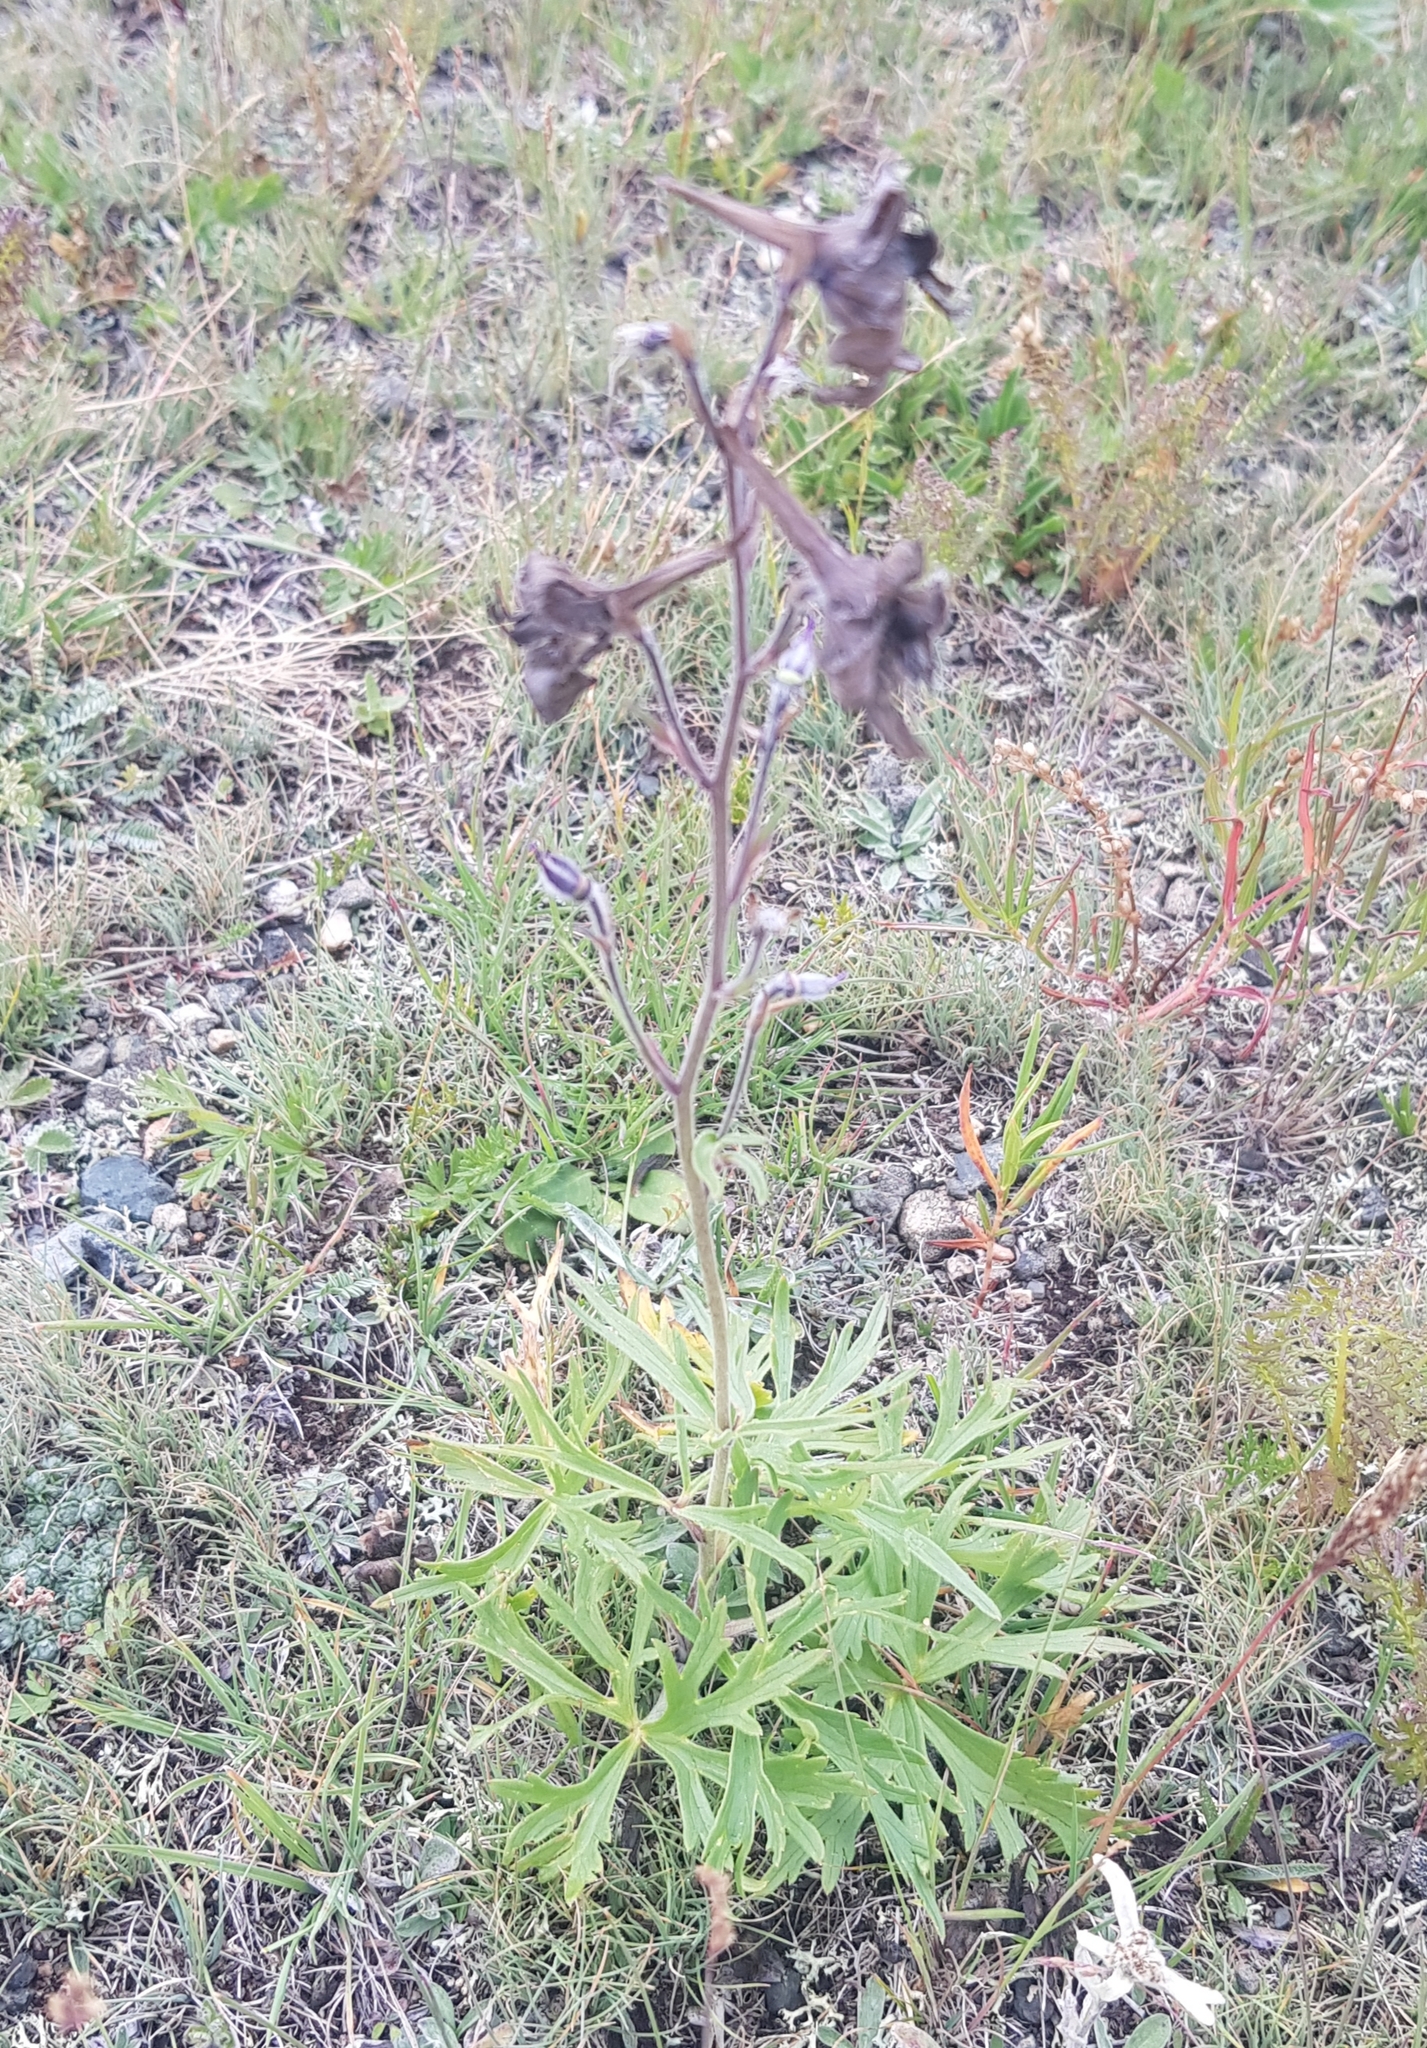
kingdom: Plantae
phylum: Tracheophyta
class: Magnoliopsida
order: Ranunculales
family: Ranunculaceae
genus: Delphinium
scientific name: Delphinium triste
